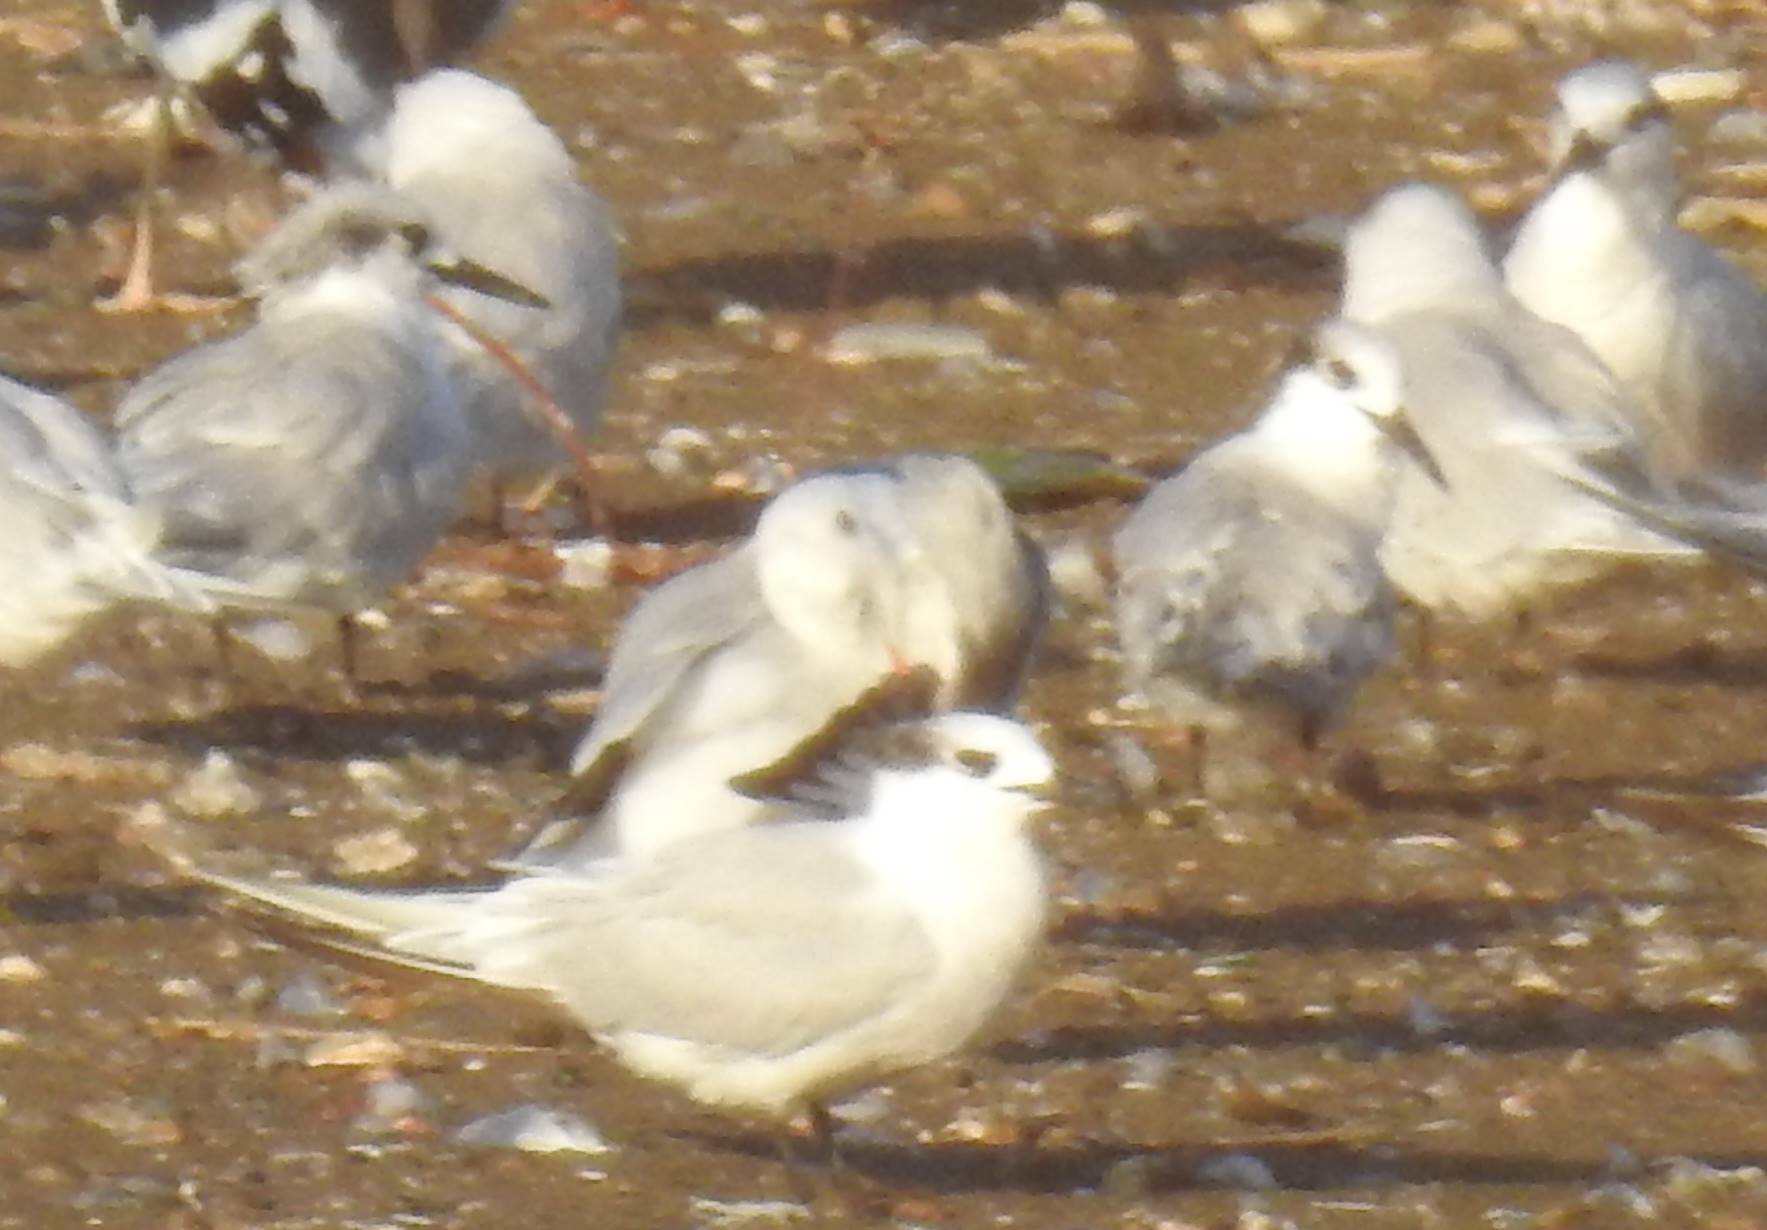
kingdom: Animalia
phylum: Chordata
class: Aves
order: Charadriiformes
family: Laridae
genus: Thalasseus
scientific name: Thalasseus sandvicensis
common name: Sandwich tern
